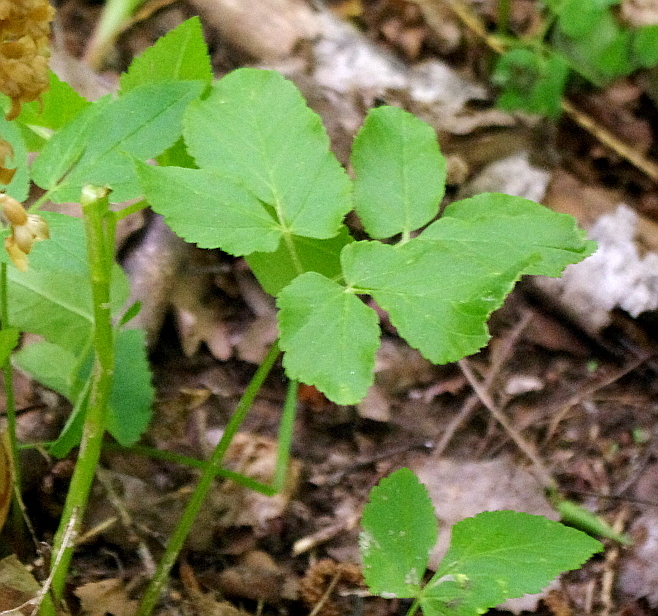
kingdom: Plantae
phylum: Tracheophyta
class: Magnoliopsida
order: Apiales
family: Apiaceae
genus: Aegopodium
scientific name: Aegopodium podagraria
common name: Ground-elder
